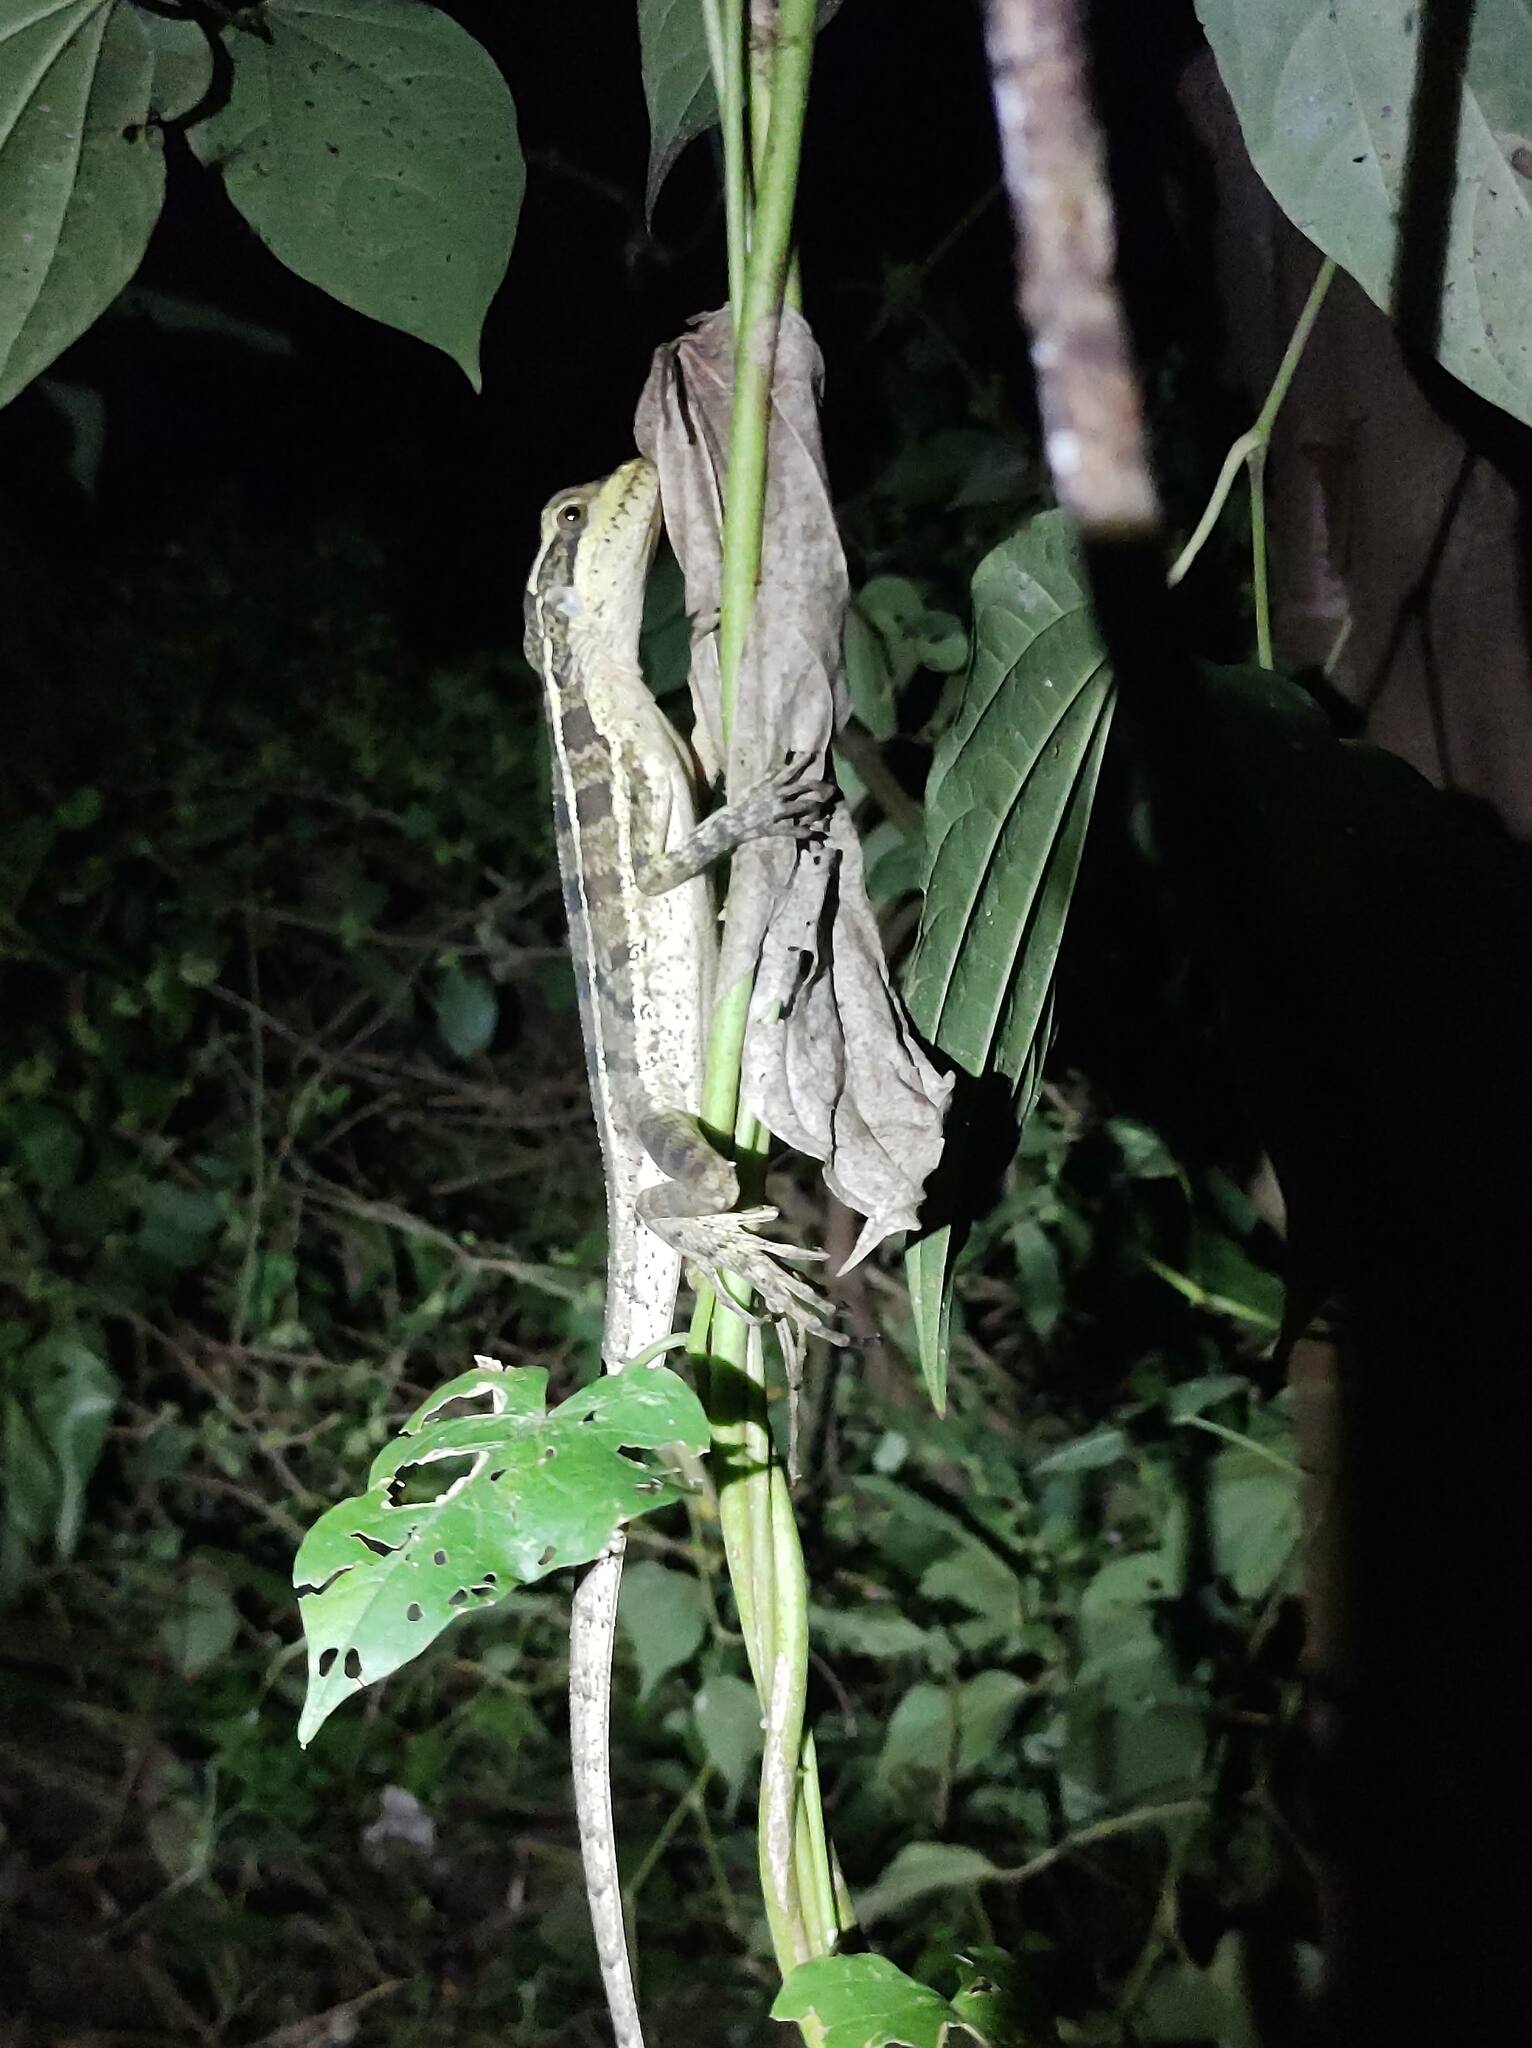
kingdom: Animalia
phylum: Chordata
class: Squamata
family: Corytophanidae
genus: Basiliscus
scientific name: Basiliscus vittatus
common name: Brown basilisk
